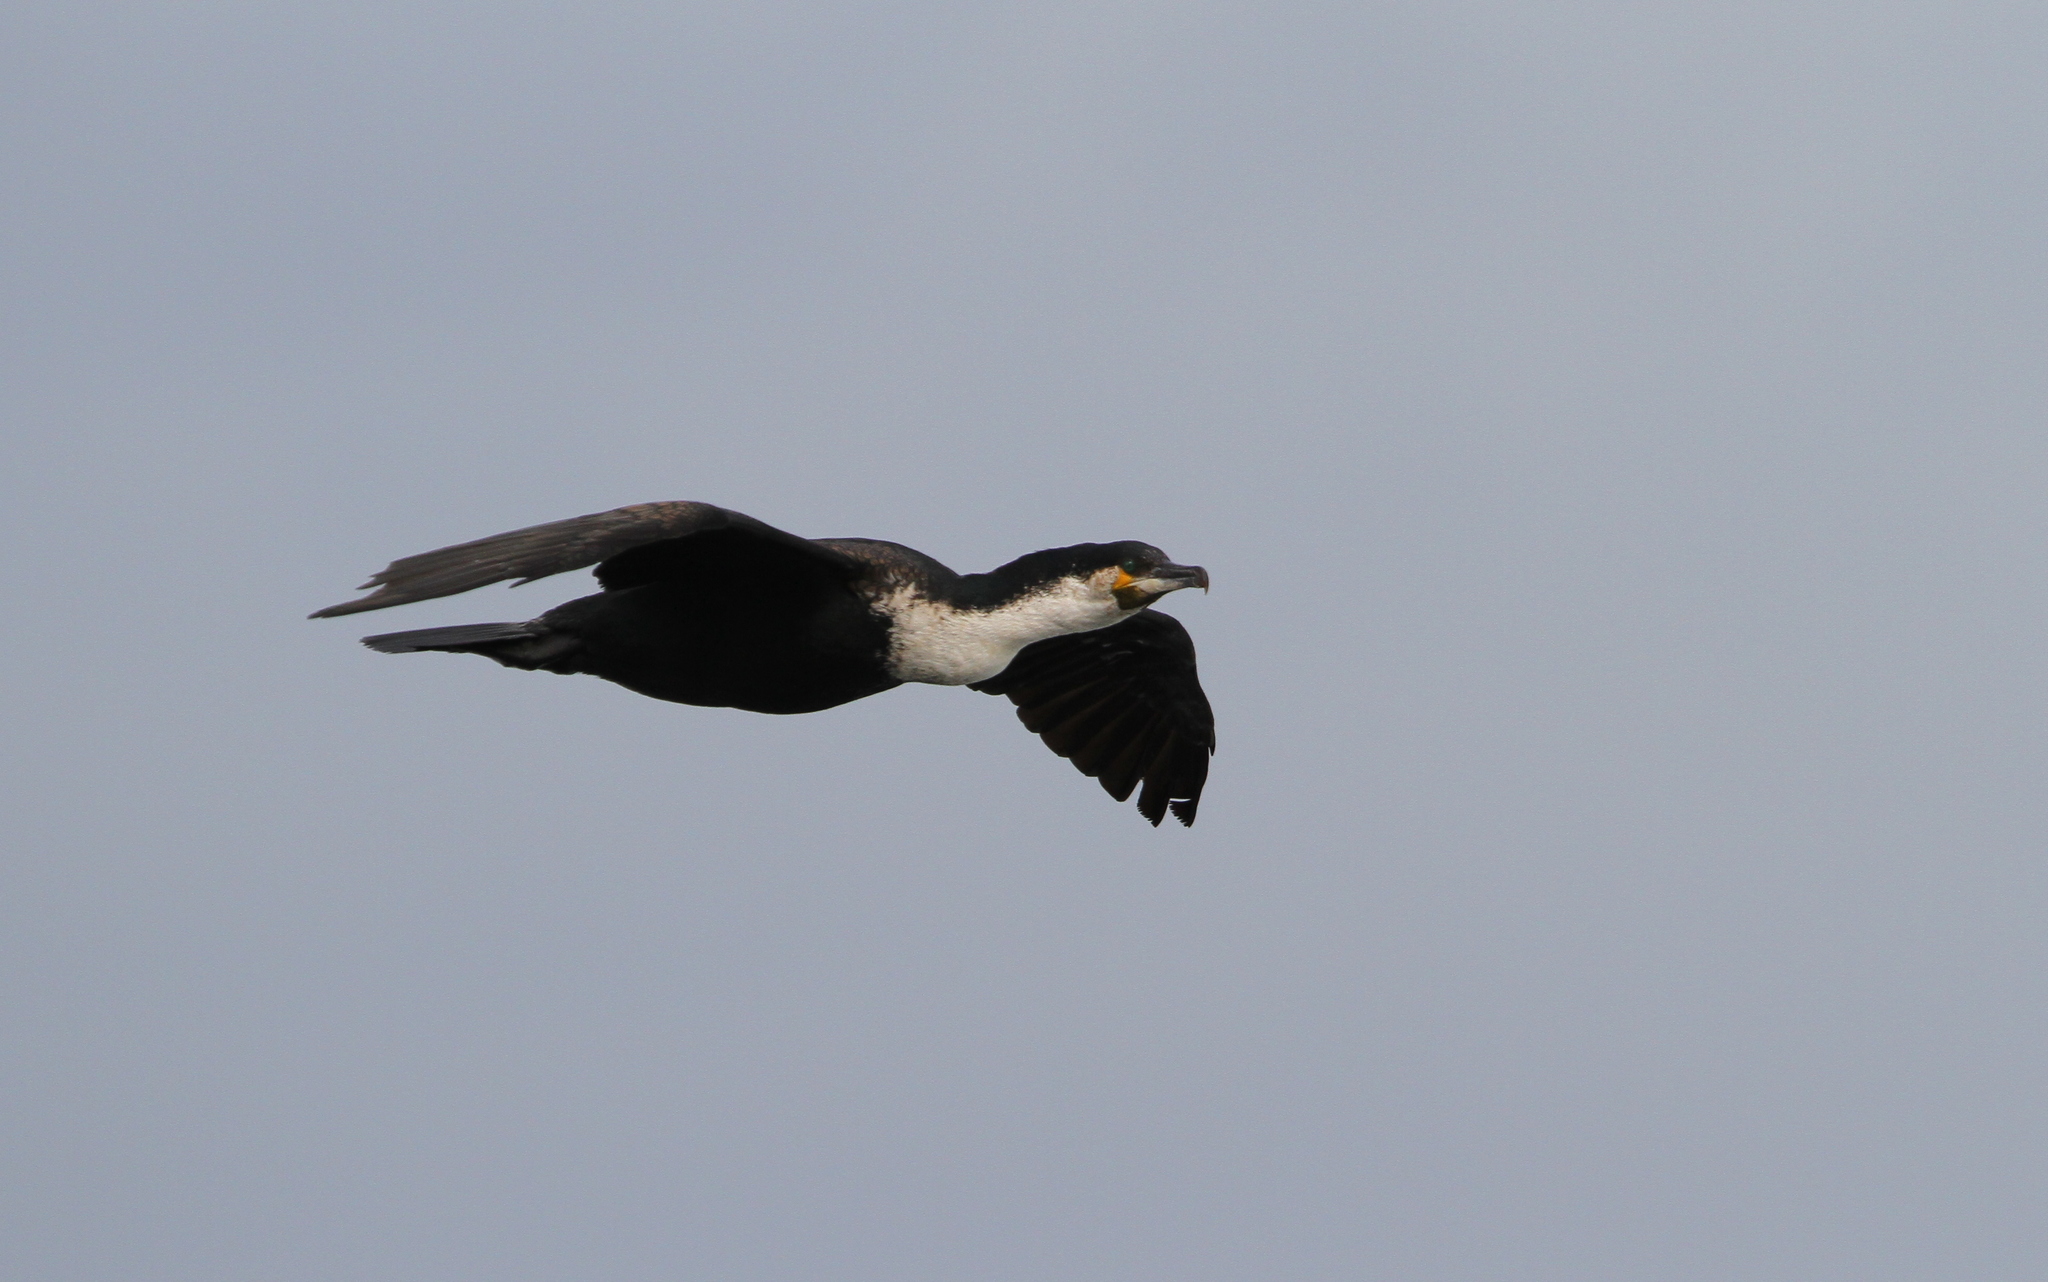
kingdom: Animalia
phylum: Chordata
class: Aves
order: Suliformes
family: Phalacrocoracidae
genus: Phalacrocorax
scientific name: Phalacrocorax carbo
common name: Great cormorant
